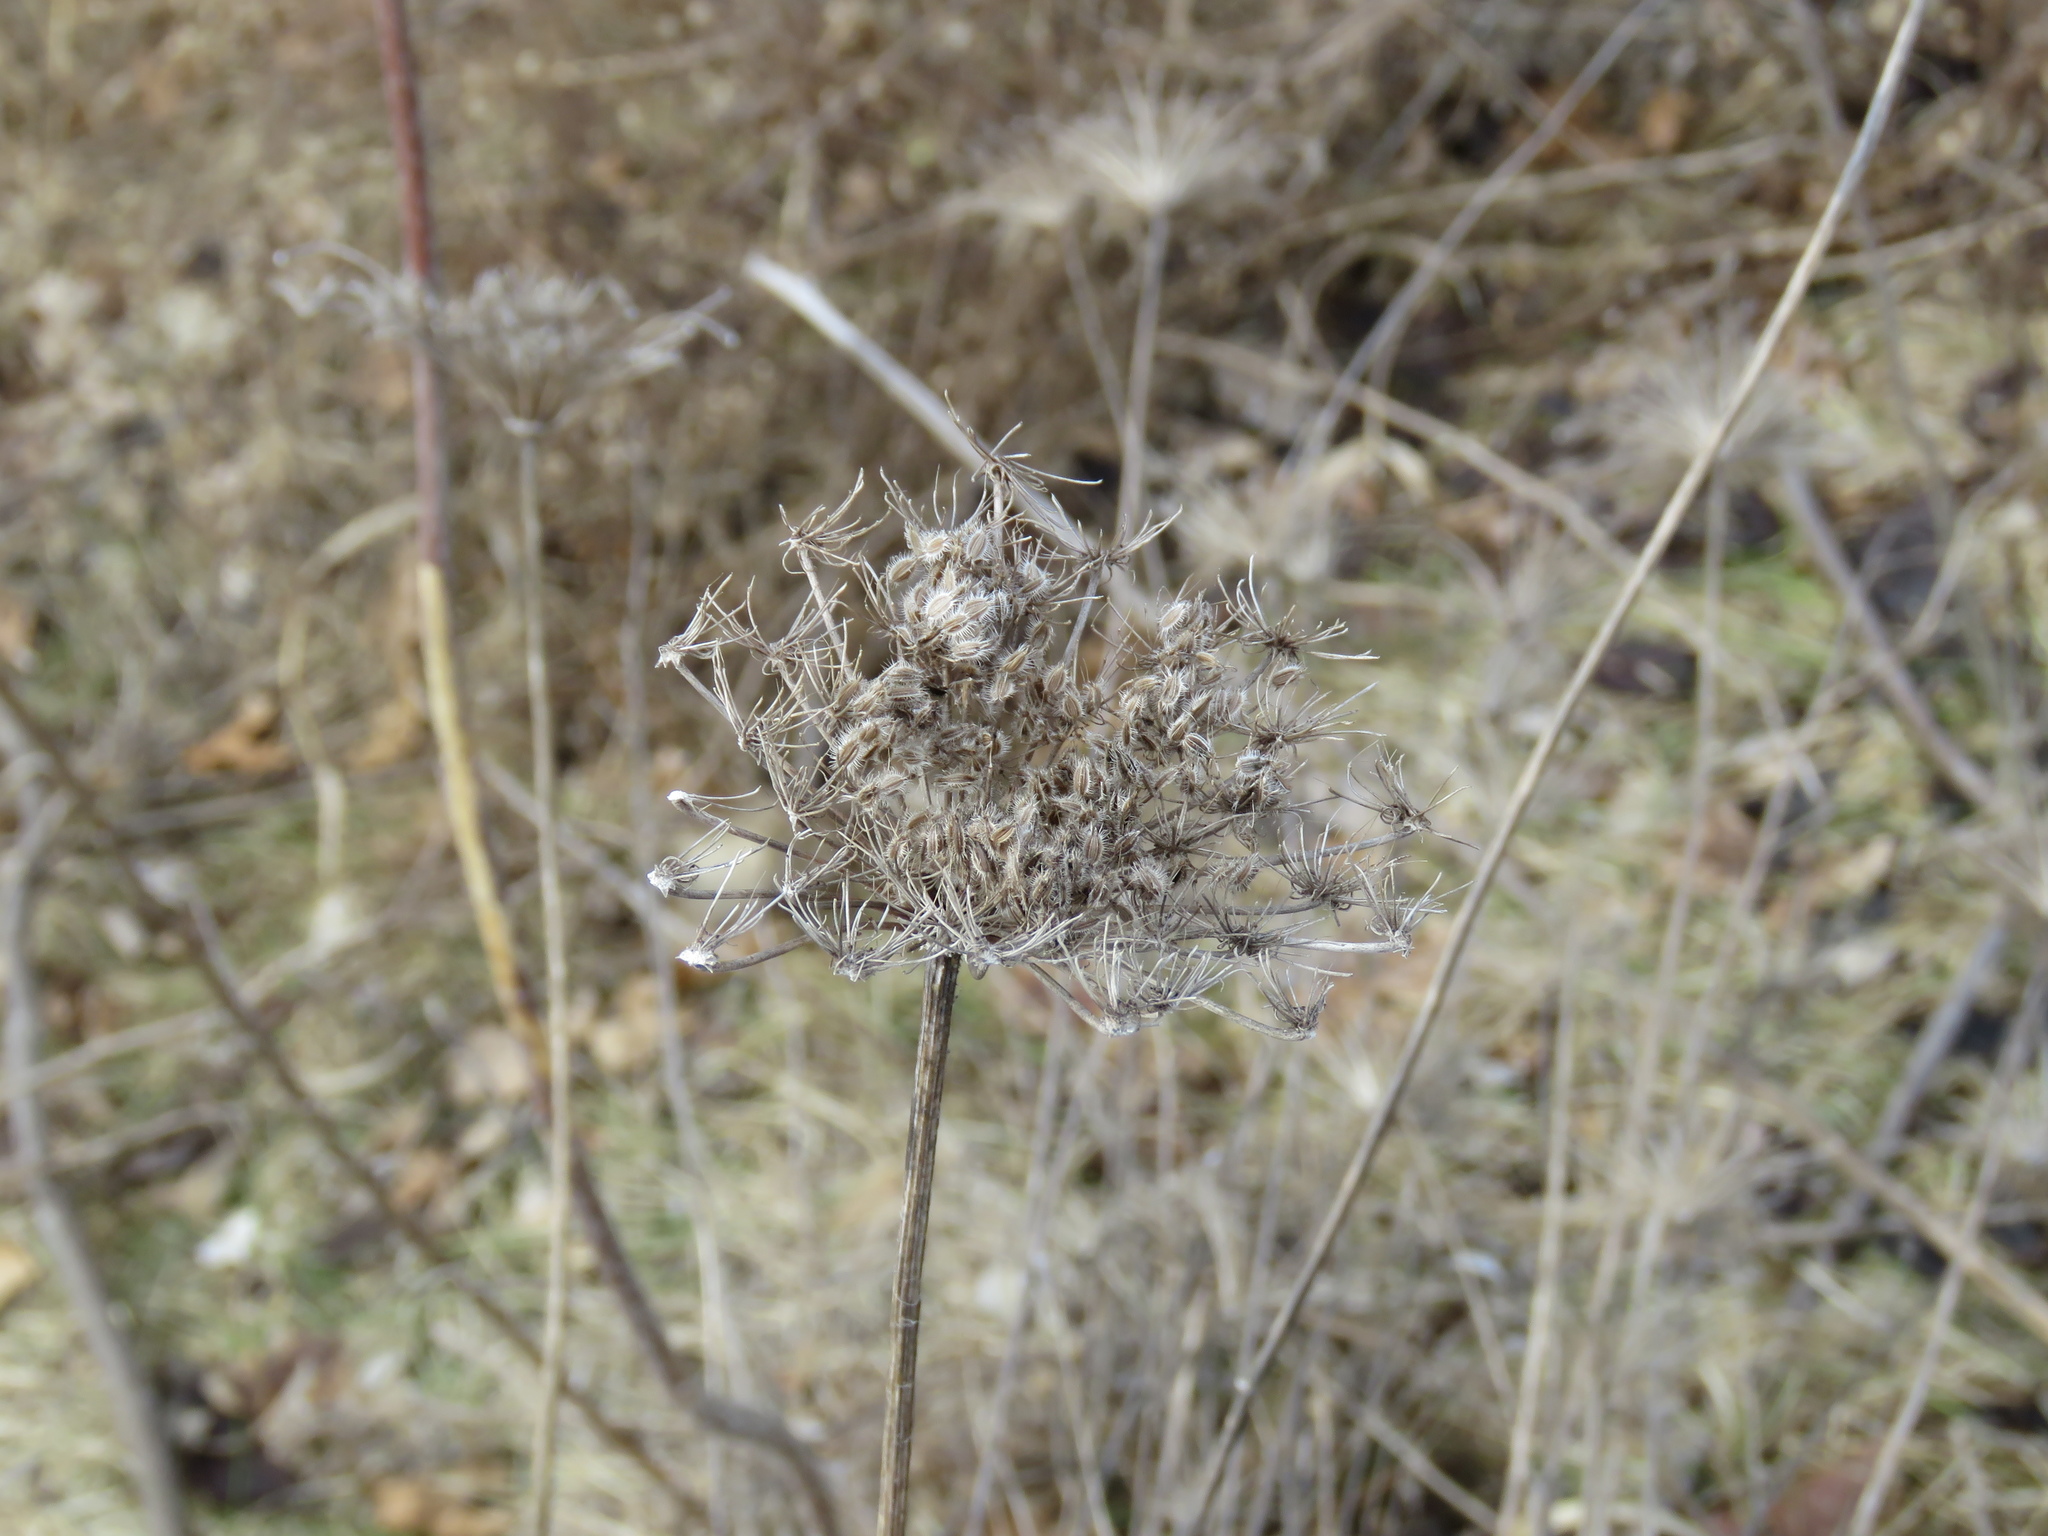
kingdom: Plantae
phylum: Tracheophyta
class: Magnoliopsida
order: Apiales
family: Apiaceae
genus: Daucus
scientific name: Daucus carota
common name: Wild carrot
